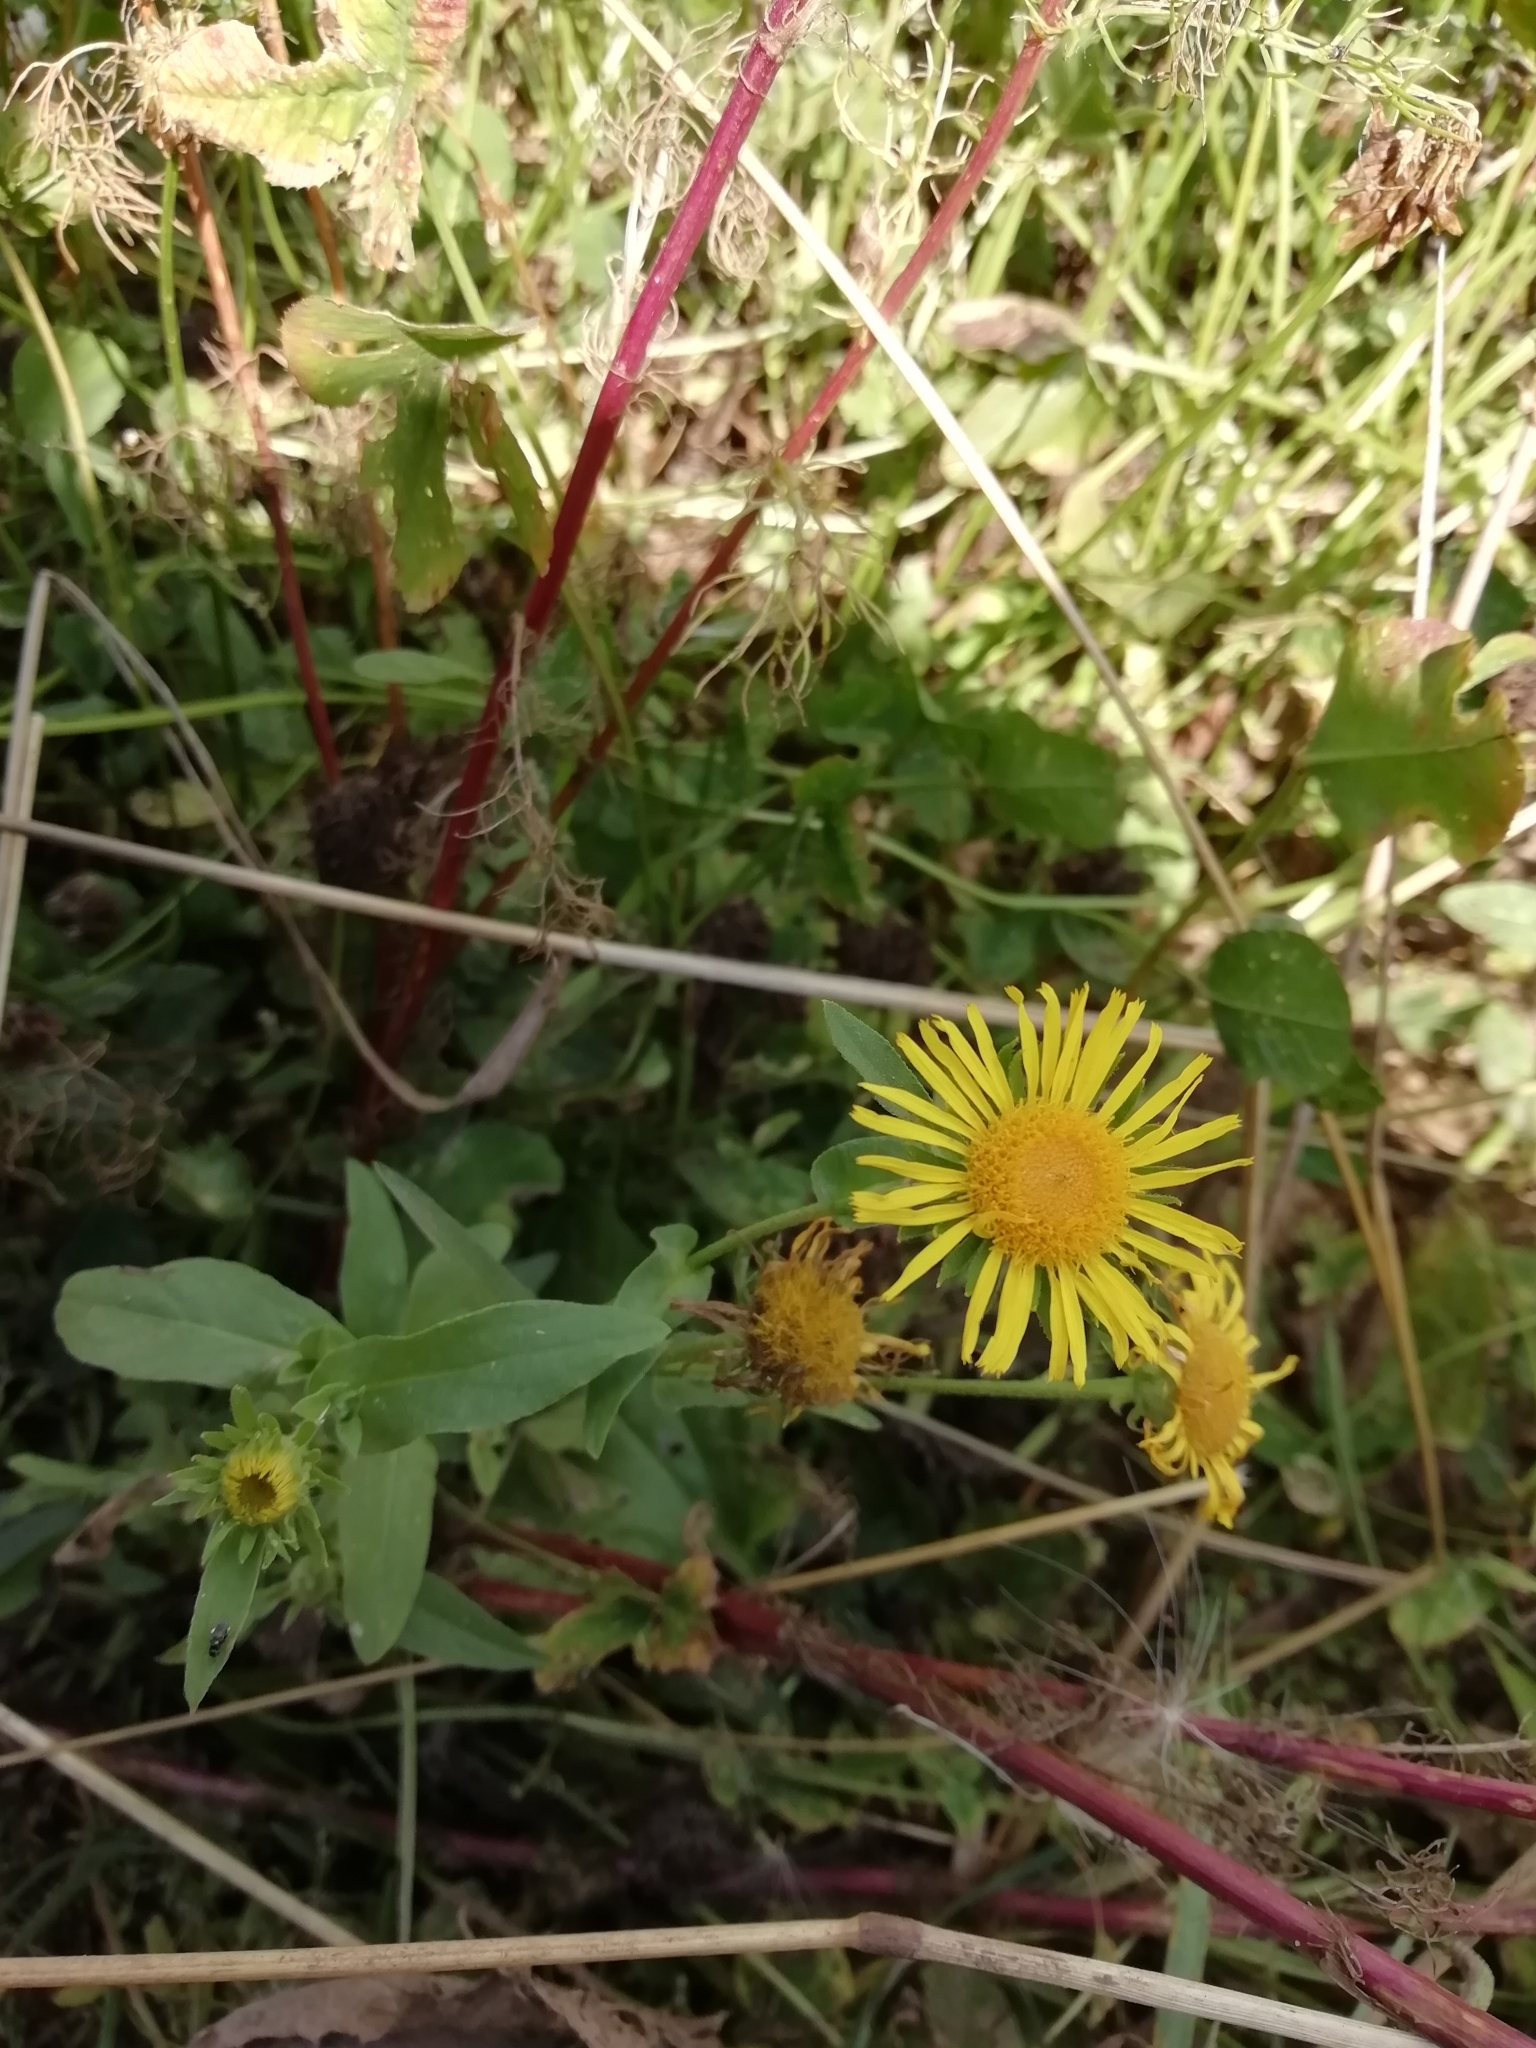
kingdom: Plantae
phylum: Tracheophyta
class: Magnoliopsida
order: Asterales
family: Asteraceae
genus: Pentanema
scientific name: Pentanema britannicum
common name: British elecampane
